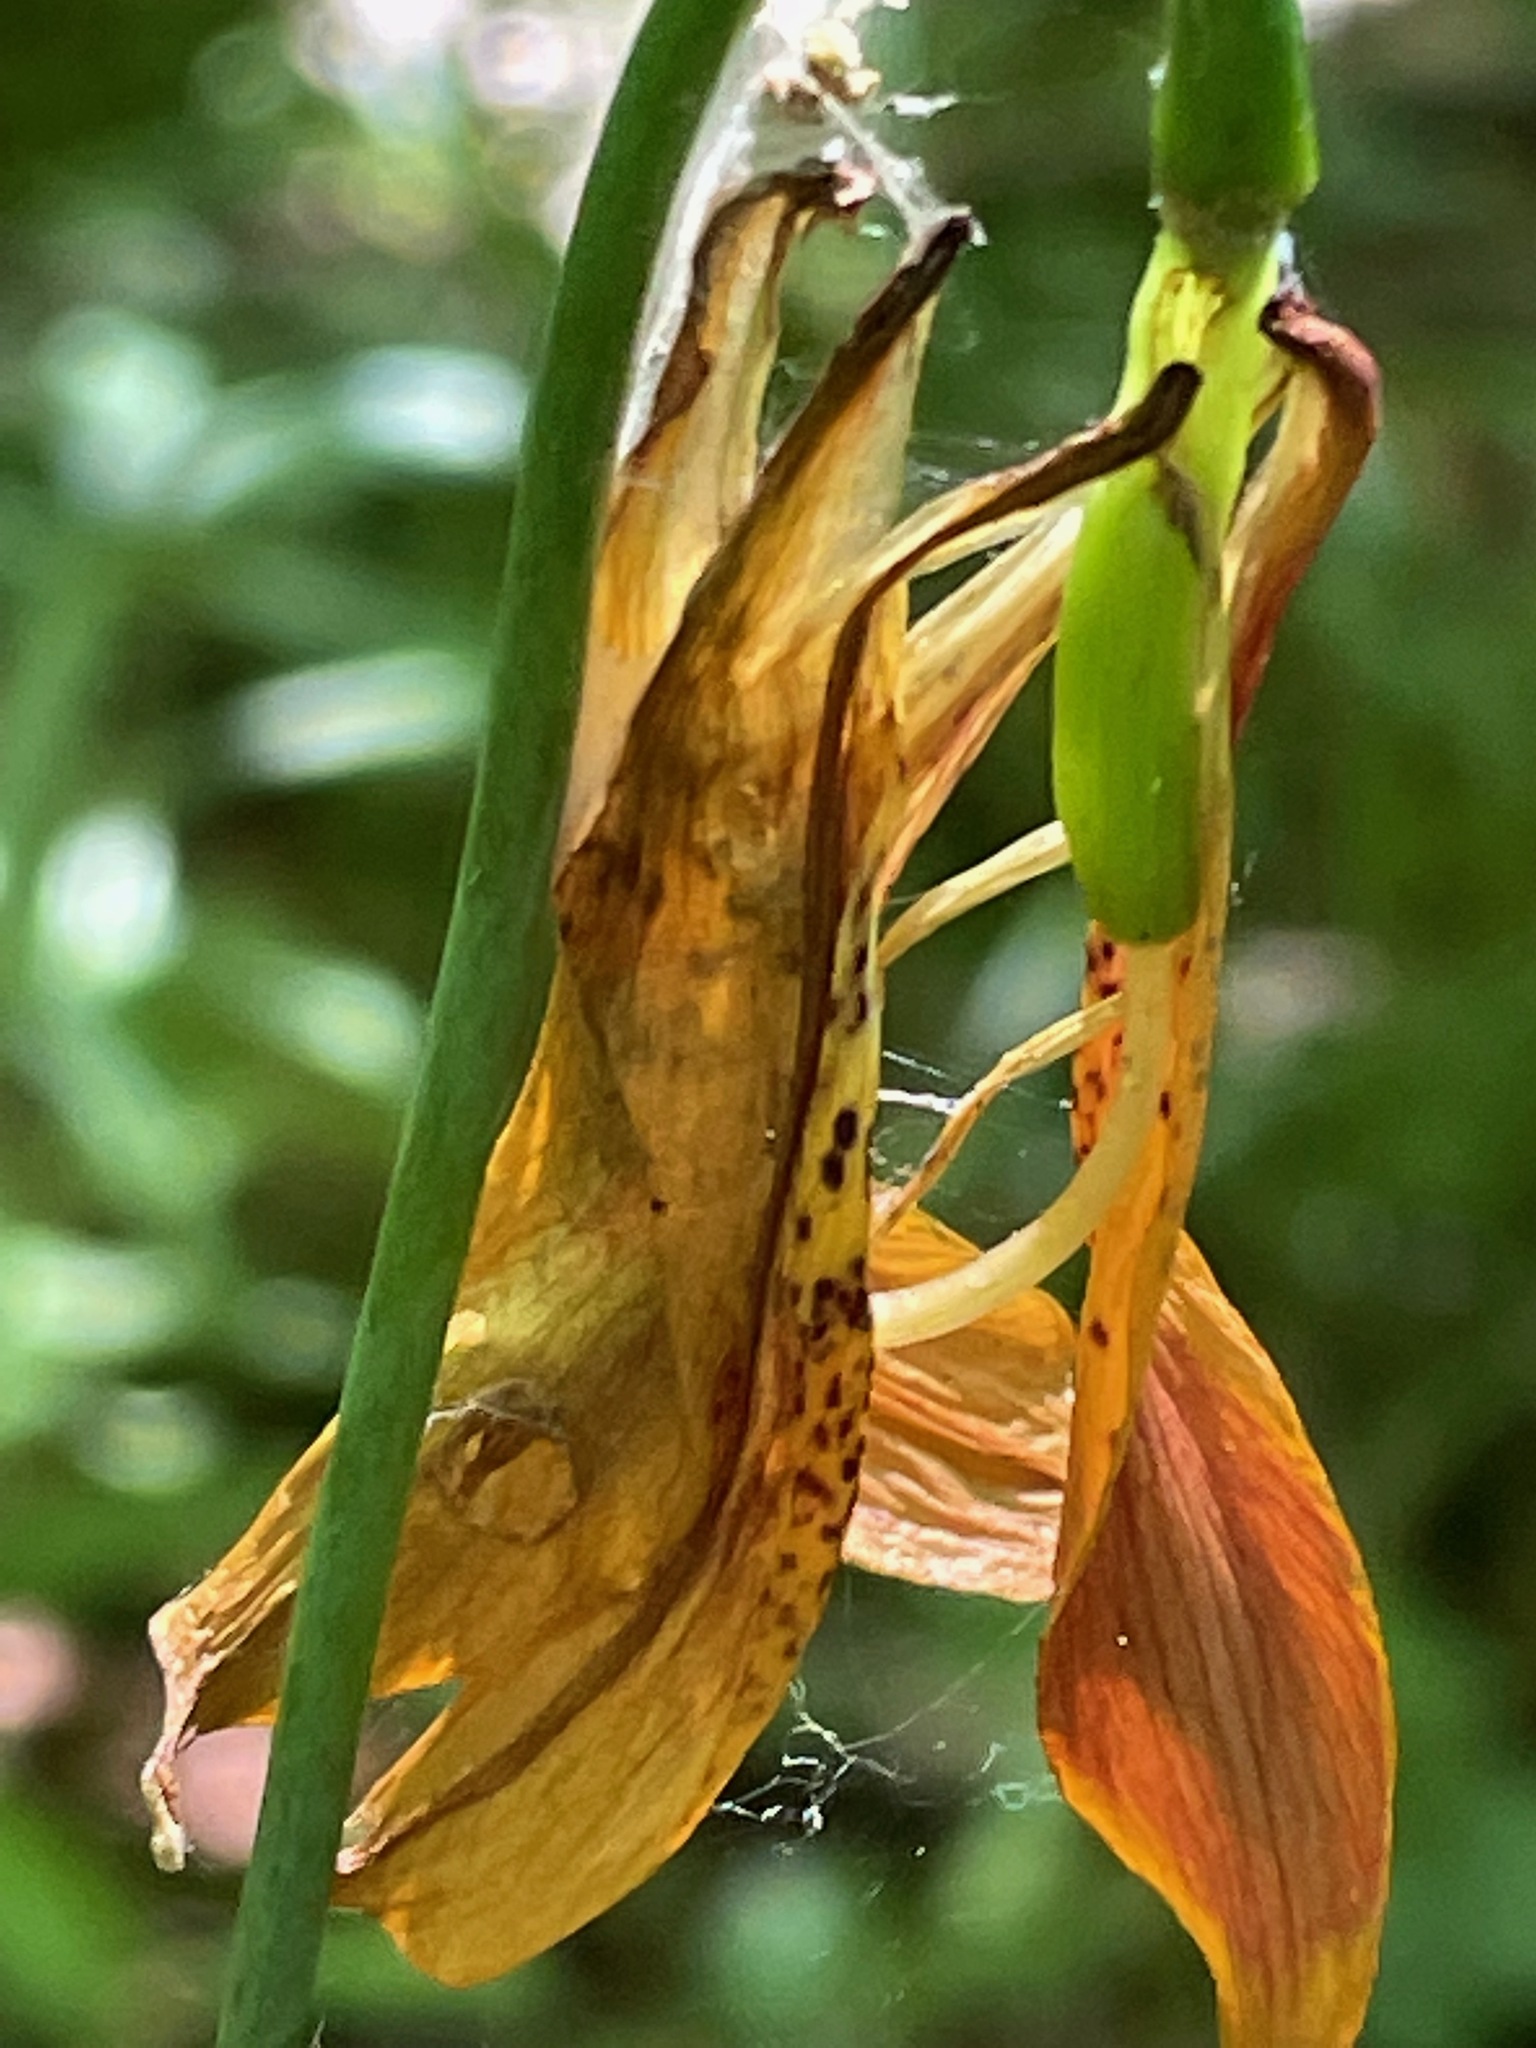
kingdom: Plantae
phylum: Tracheophyta
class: Liliopsida
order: Liliales
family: Liliaceae
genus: Lilium
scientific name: Lilium canadense
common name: Canada lily
